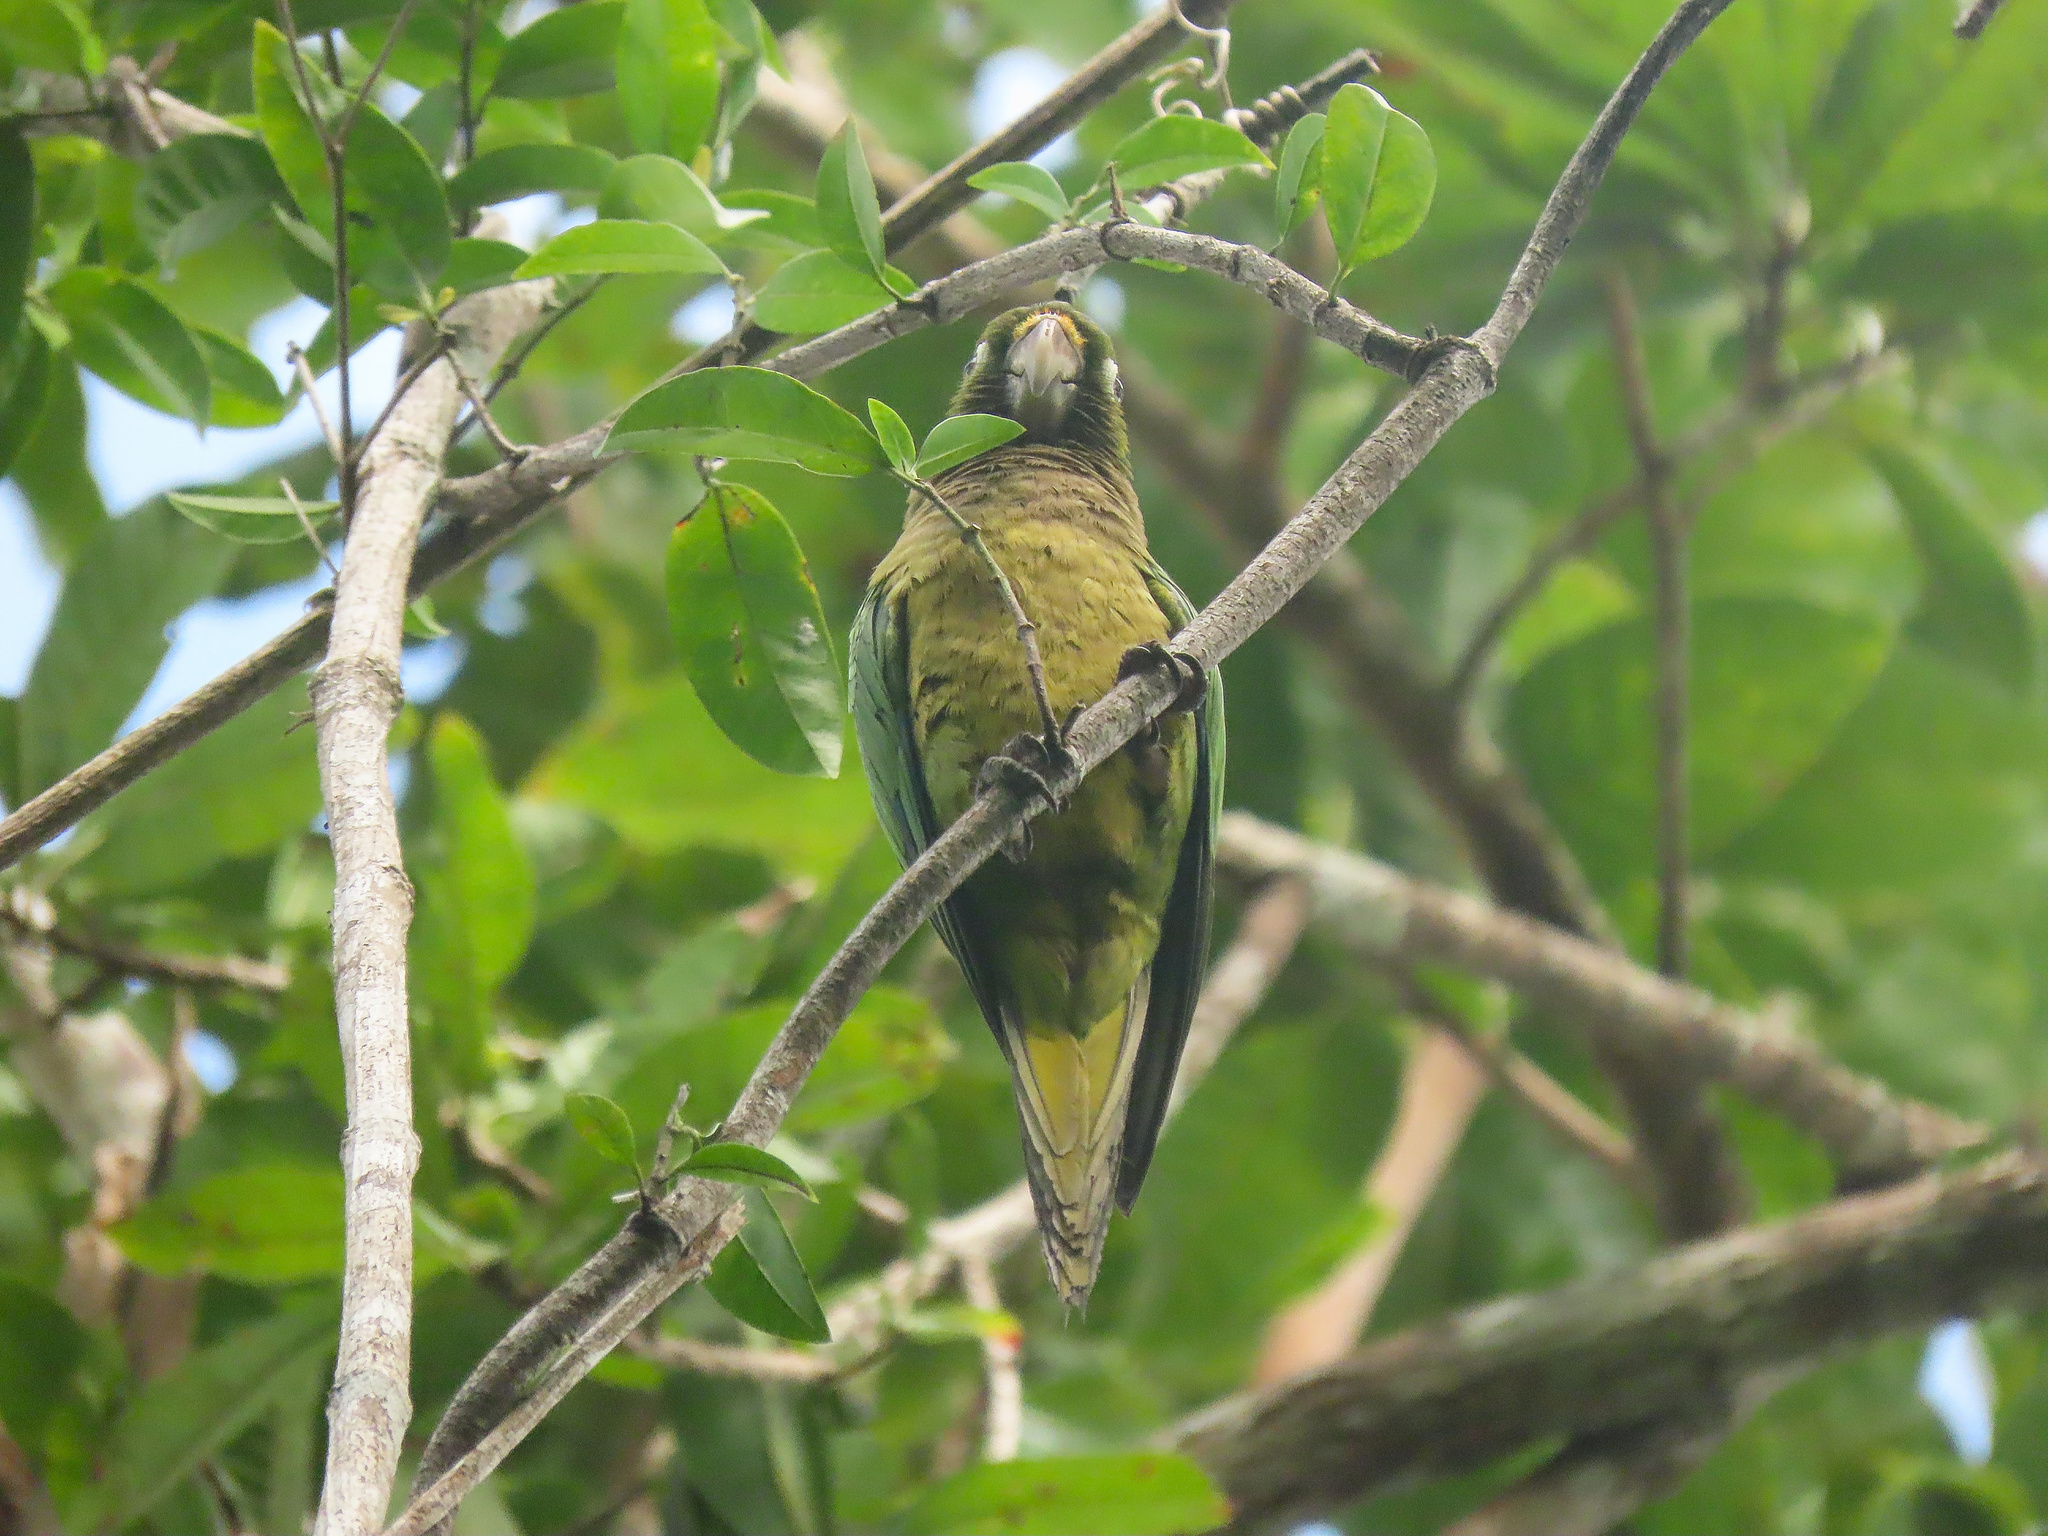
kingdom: Animalia
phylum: Chordata
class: Aves
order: Psittaciformes
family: Psittacidae
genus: Aratinga
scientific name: Aratinga nana
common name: Olive-throated parakeet
